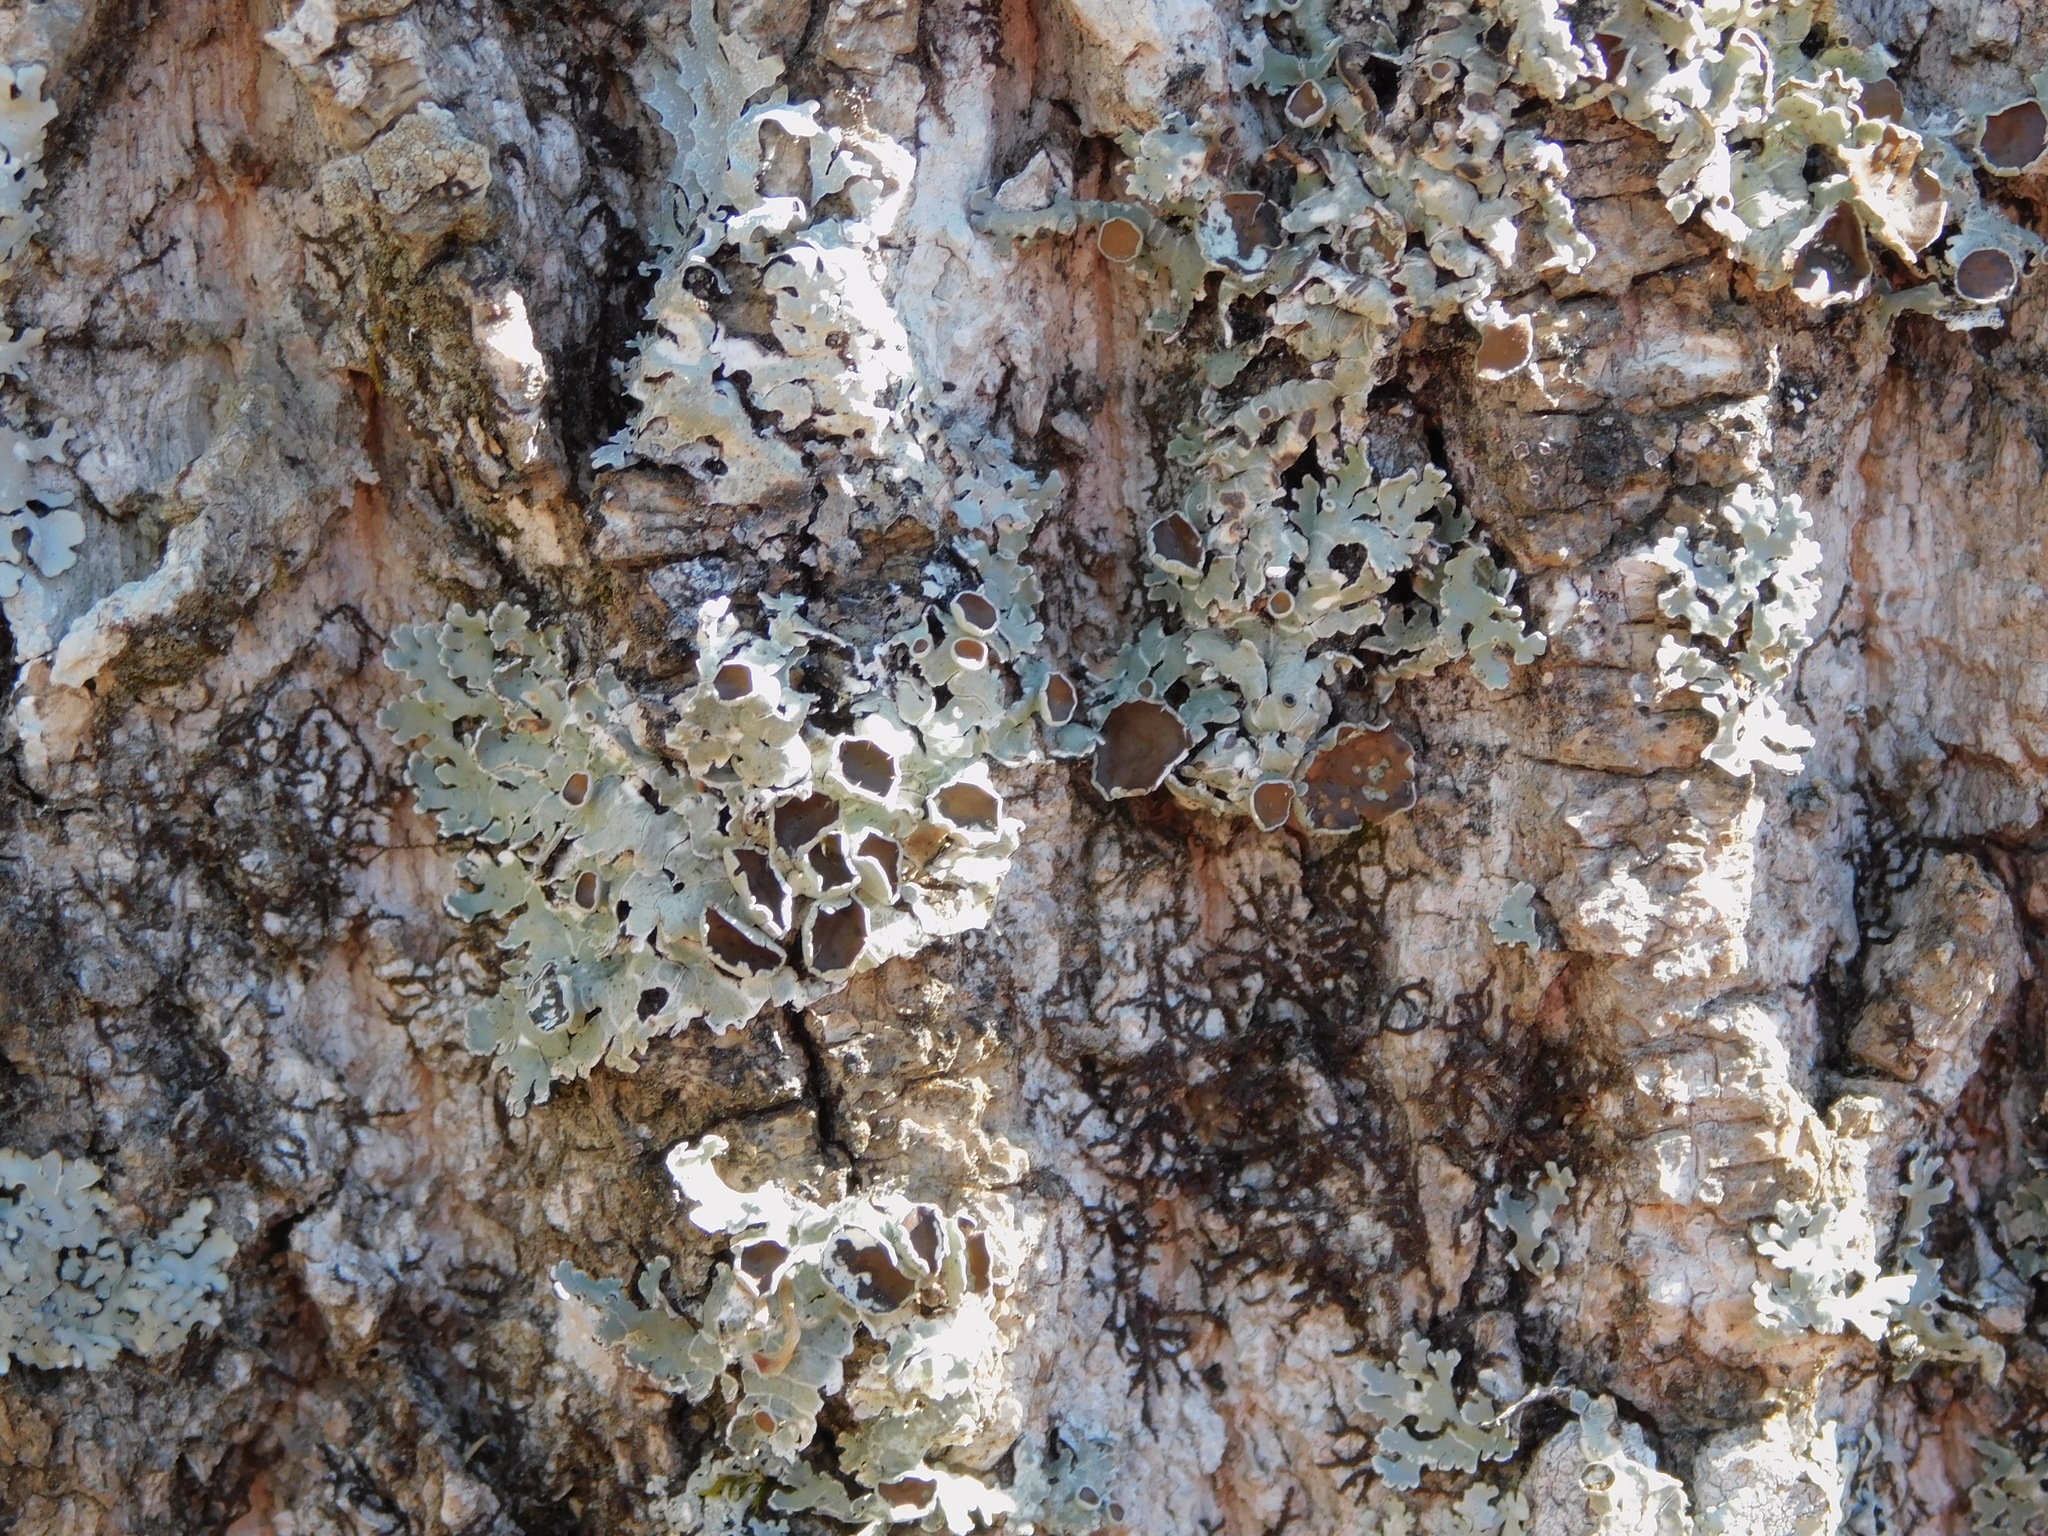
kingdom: Fungi
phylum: Ascomycota
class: Lecanoromycetes
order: Lecanorales
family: Parmeliaceae
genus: Imshaugia
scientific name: Imshaugia placorodia
